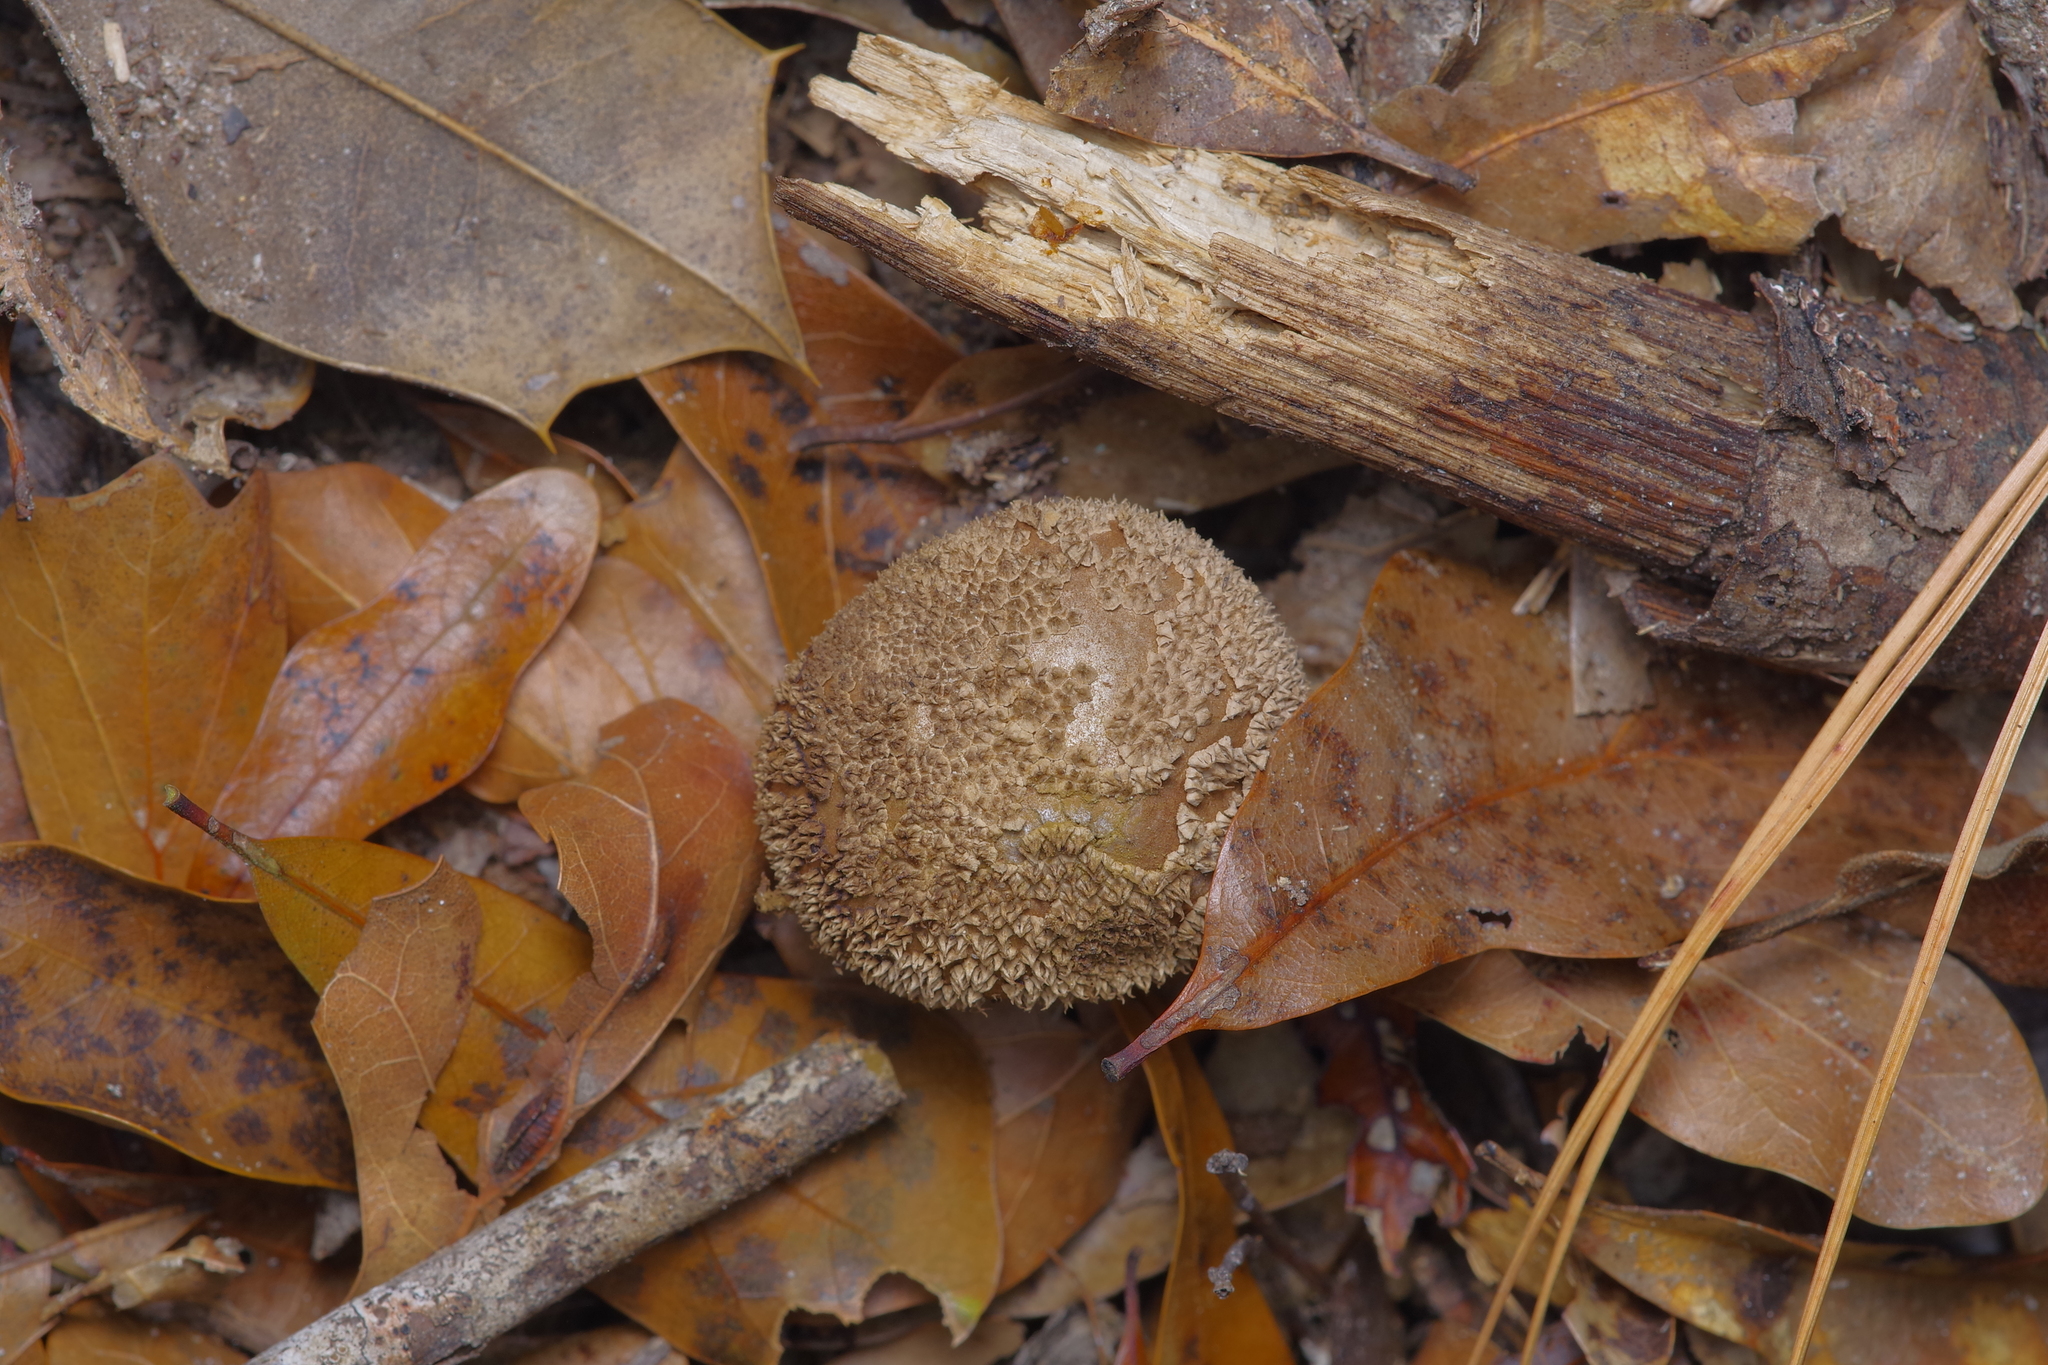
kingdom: Fungi
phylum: Basidiomycota
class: Agaricomycetes
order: Agaricales
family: Agaricaceae
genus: Lycoperdon
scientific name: Lycoperdon marginatum
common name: Peeling puffball
